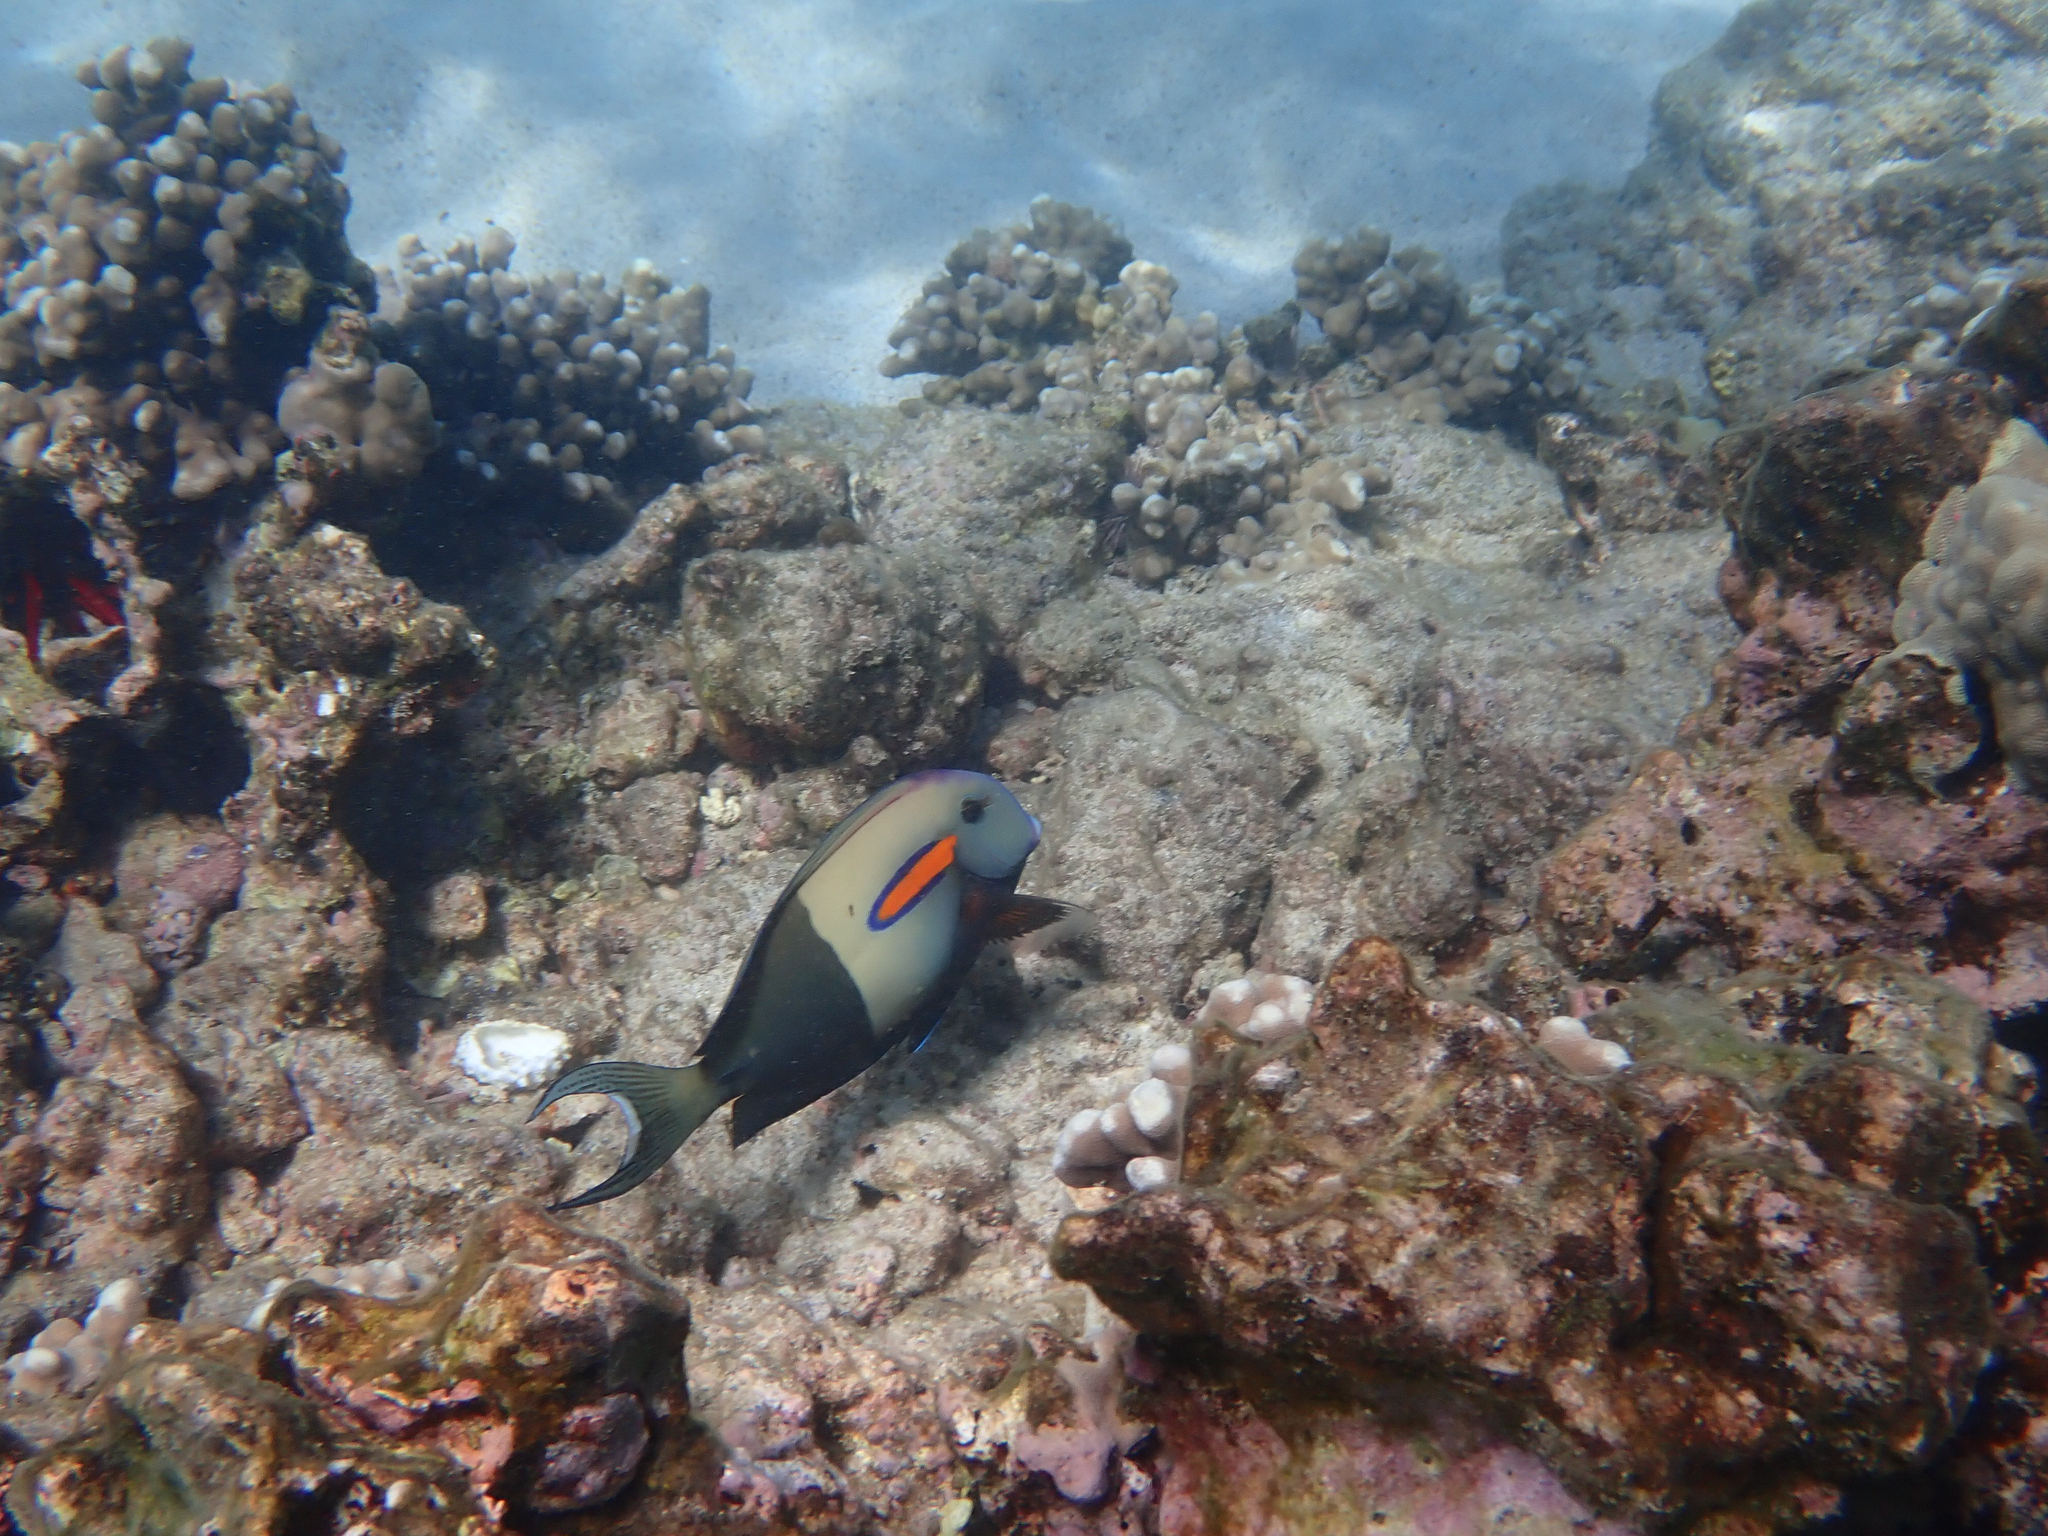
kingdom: Animalia
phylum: Chordata
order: Perciformes
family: Acanthuridae
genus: Acanthurus
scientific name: Acanthurus olivaceus
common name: Gendarme fish
